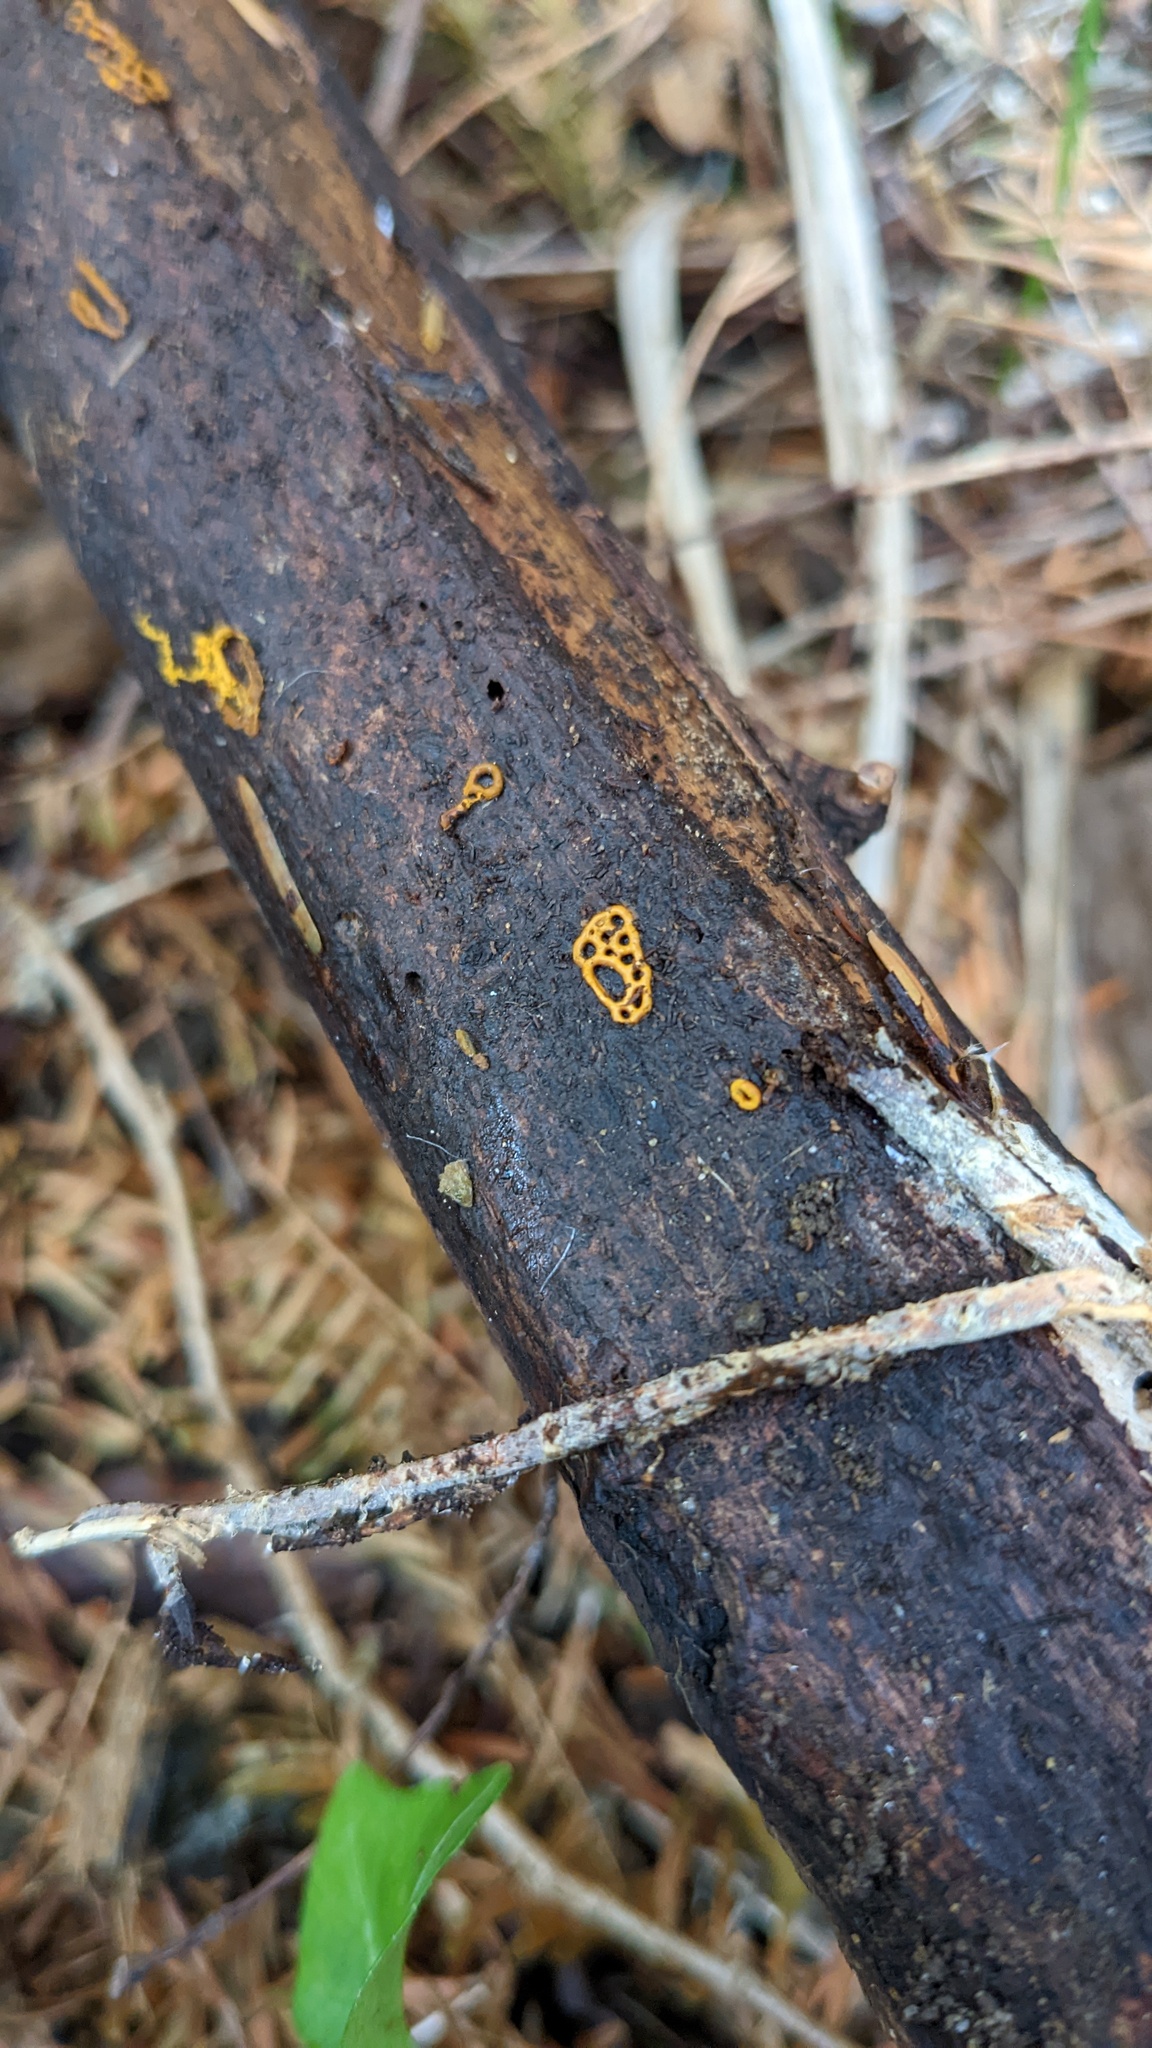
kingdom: Protozoa
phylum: Mycetozoa
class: Myxomycetes
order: Trichiales
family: Arcyriaceae
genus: Hemitrichia
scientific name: Hemitrichia serpula
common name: Pretzel slime mold
